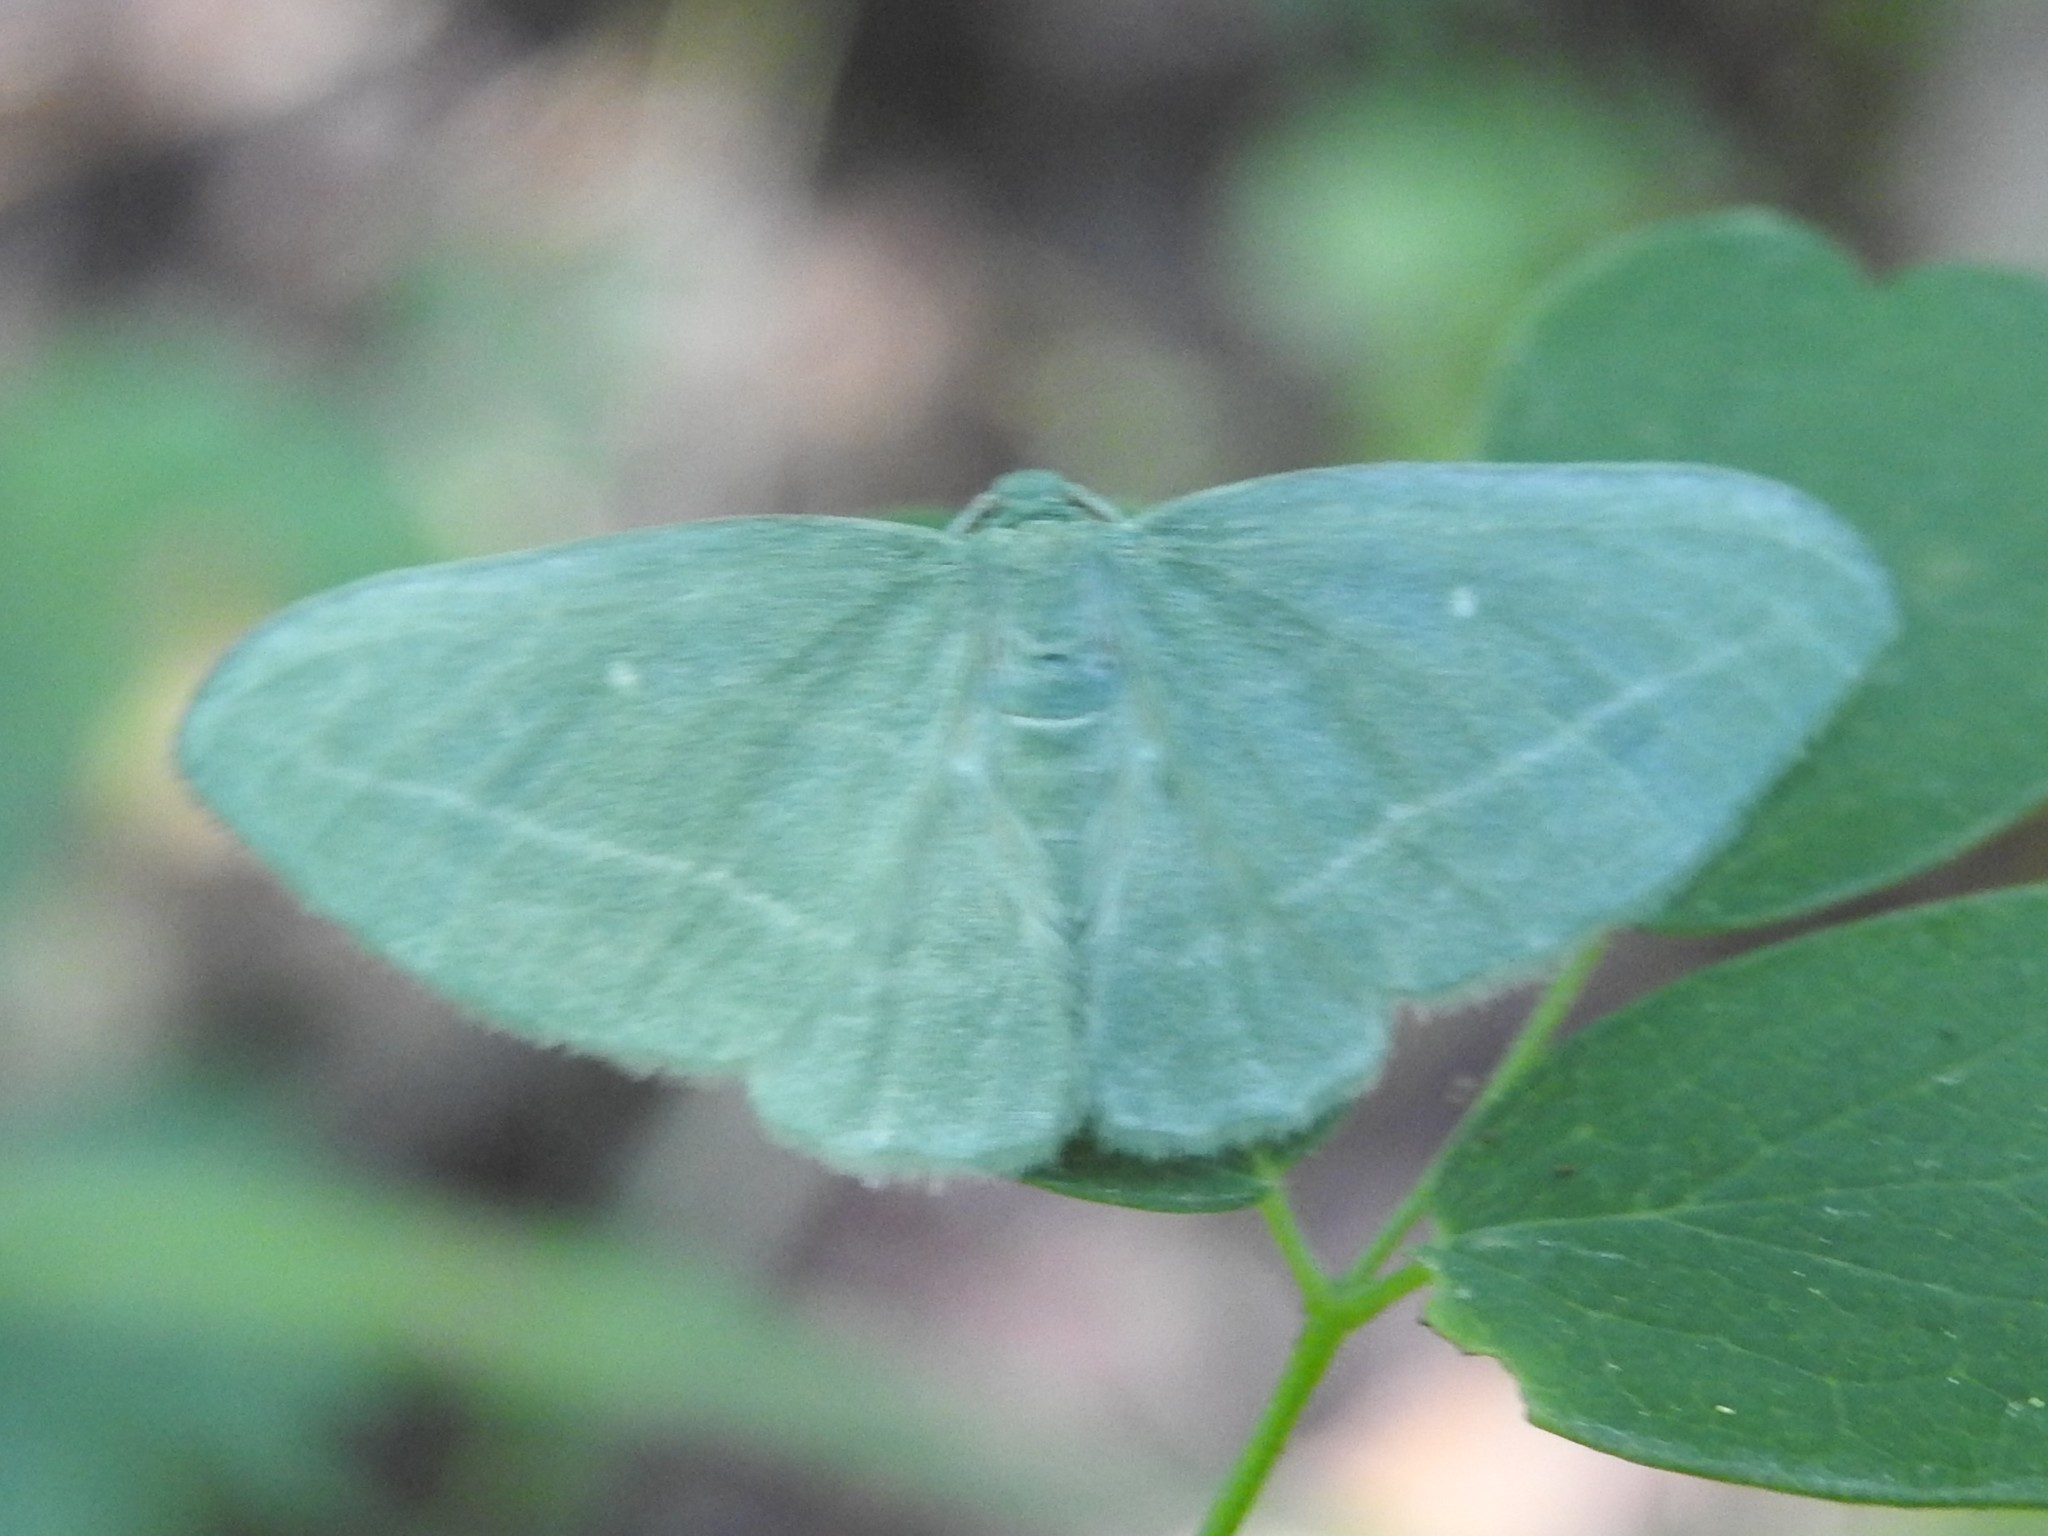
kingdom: Animalia
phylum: Arthropoda
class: Insecta
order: Lepidoptera
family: Geometridae
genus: Dyspteris
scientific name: Dyspteris abortivaria
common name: Bad-wing
